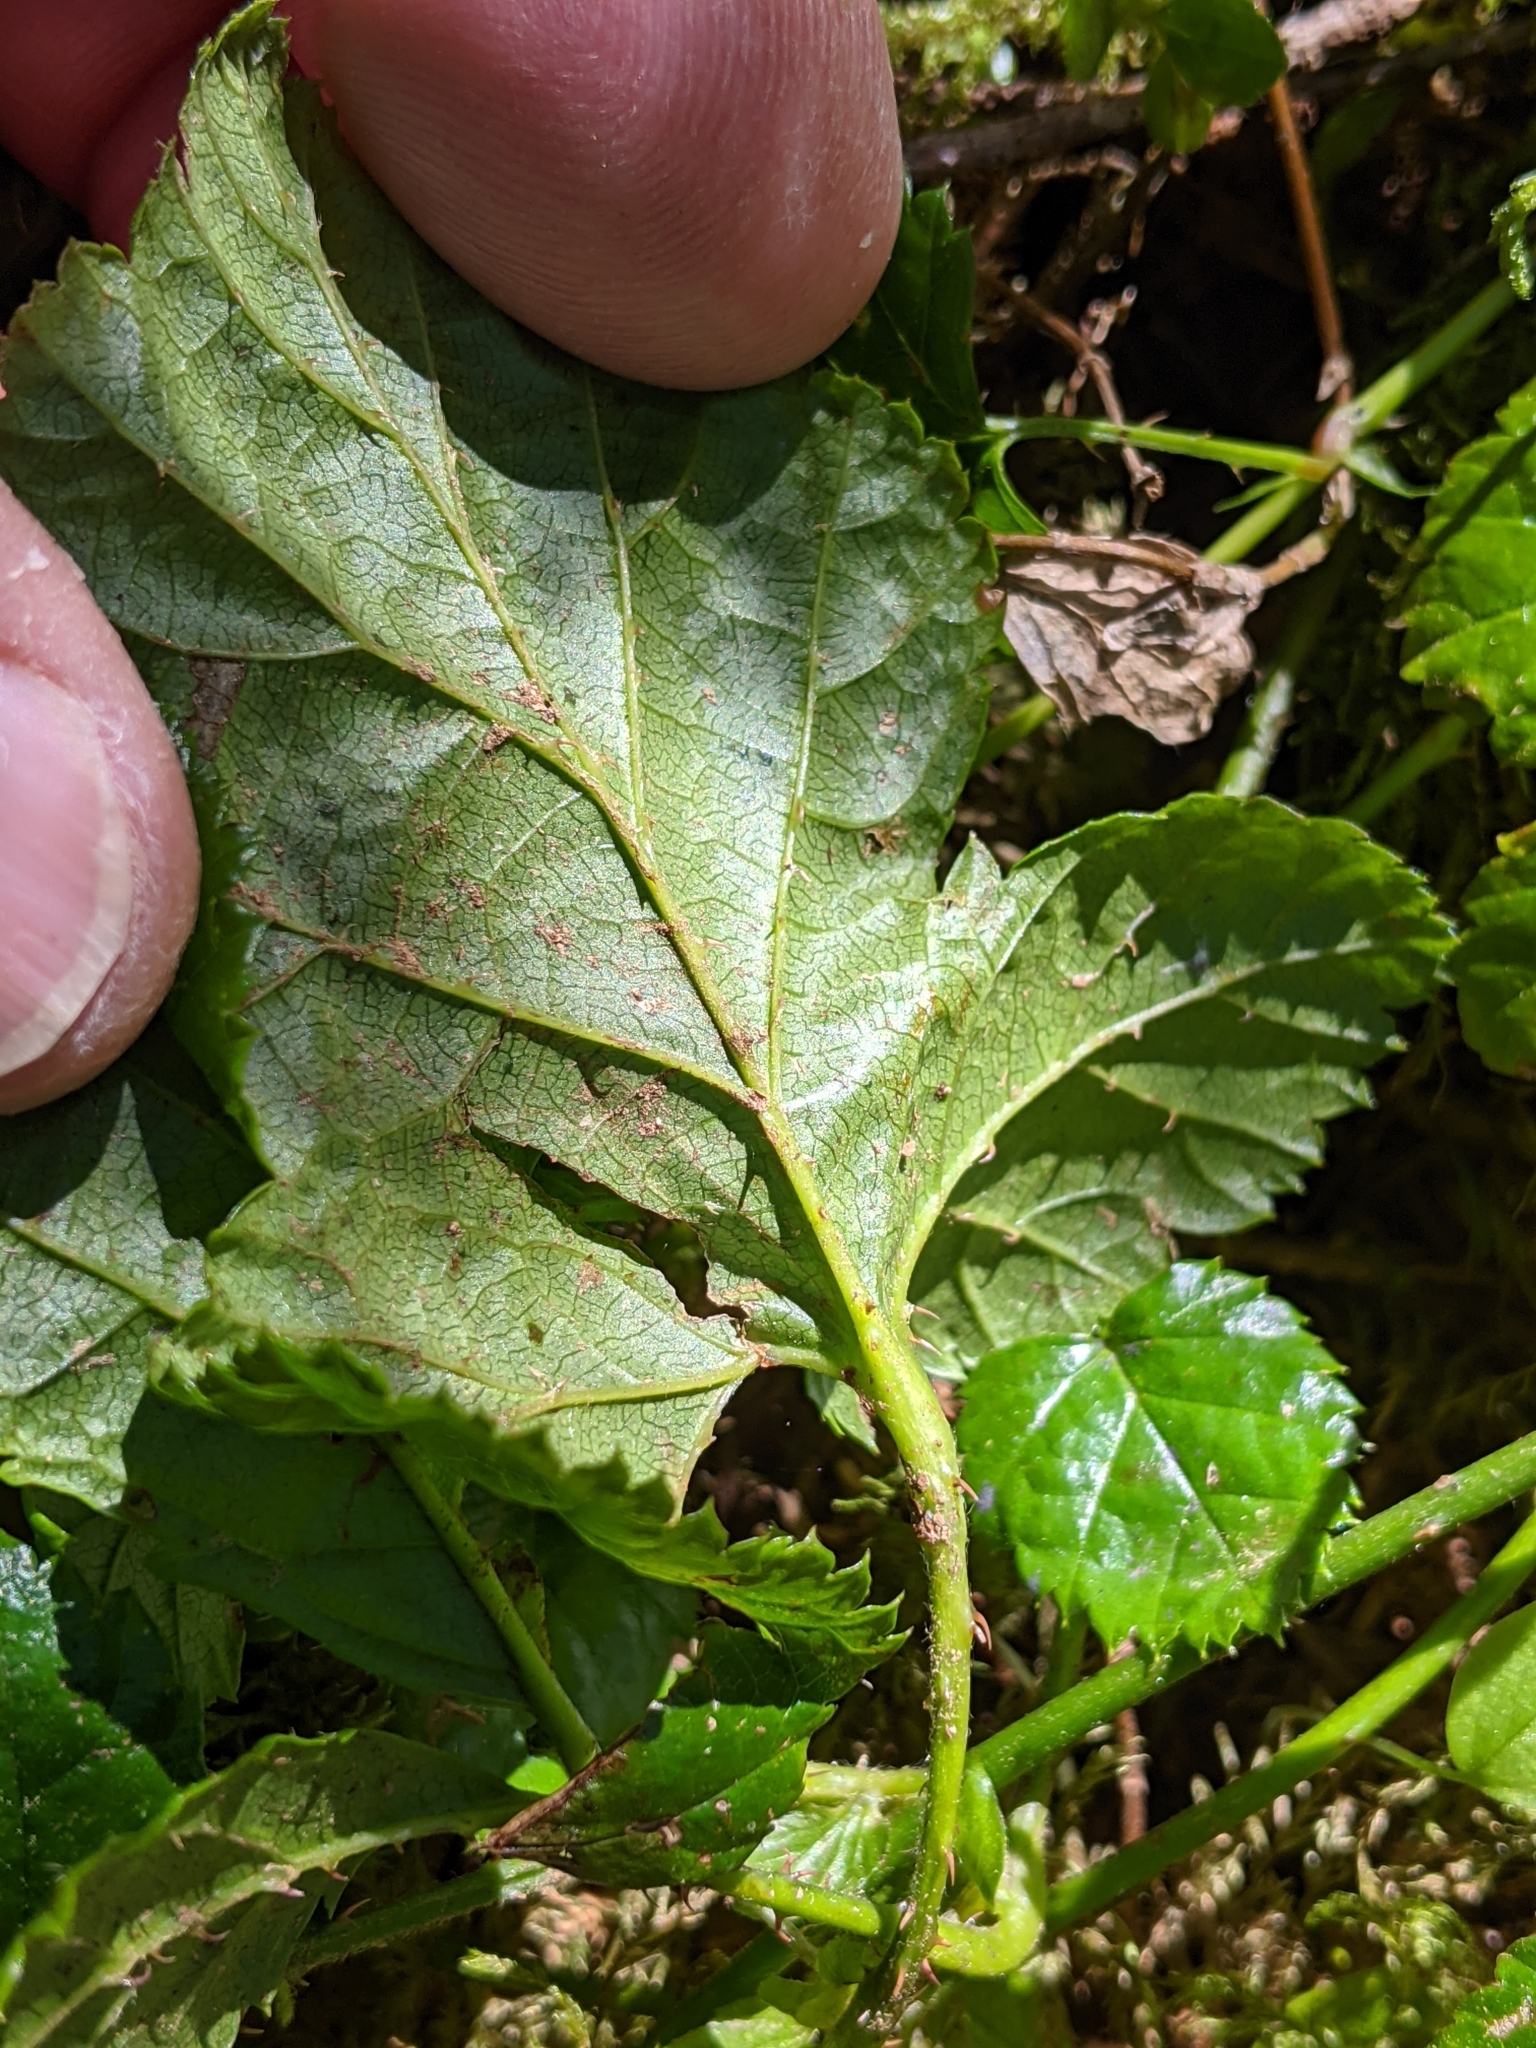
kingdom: Plantae
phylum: Tracheophyta
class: Magnoliopsida
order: Rosales
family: Rosaceae
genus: Rubus
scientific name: Rubus nivalis
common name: Dwarf snow bramble
